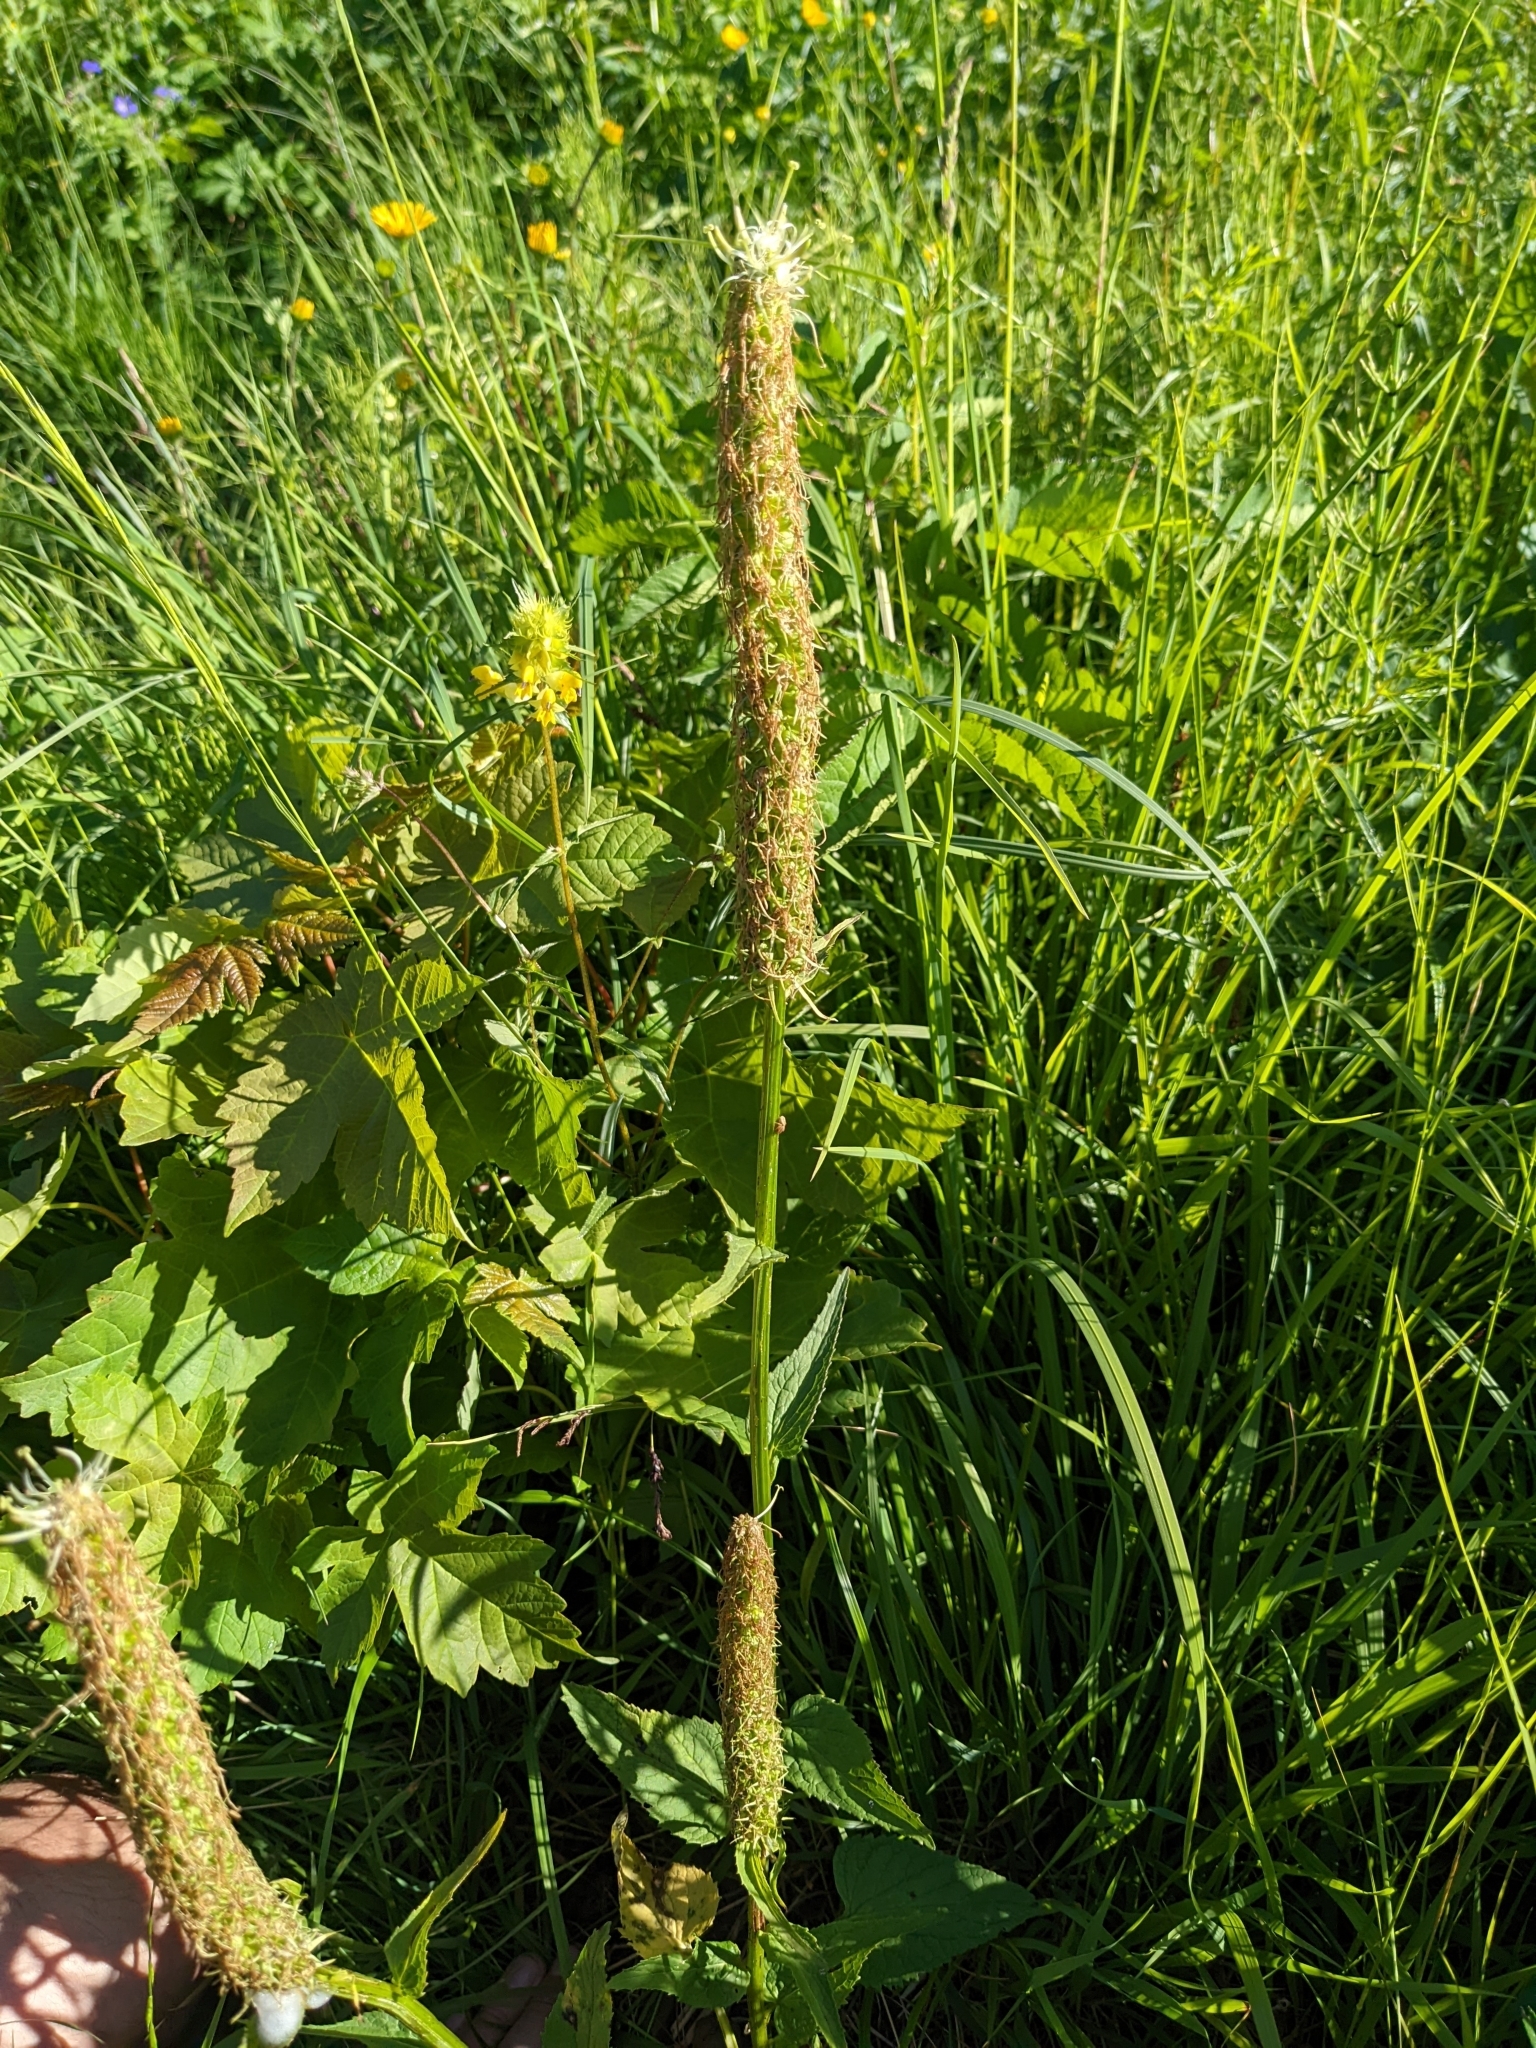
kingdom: Plantae
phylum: Tracheophyta
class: Magnoliopsida
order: Asterales
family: Campanulaceae
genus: Phyteuma
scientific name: Phyteuma spicatum
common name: Spiked rampion
